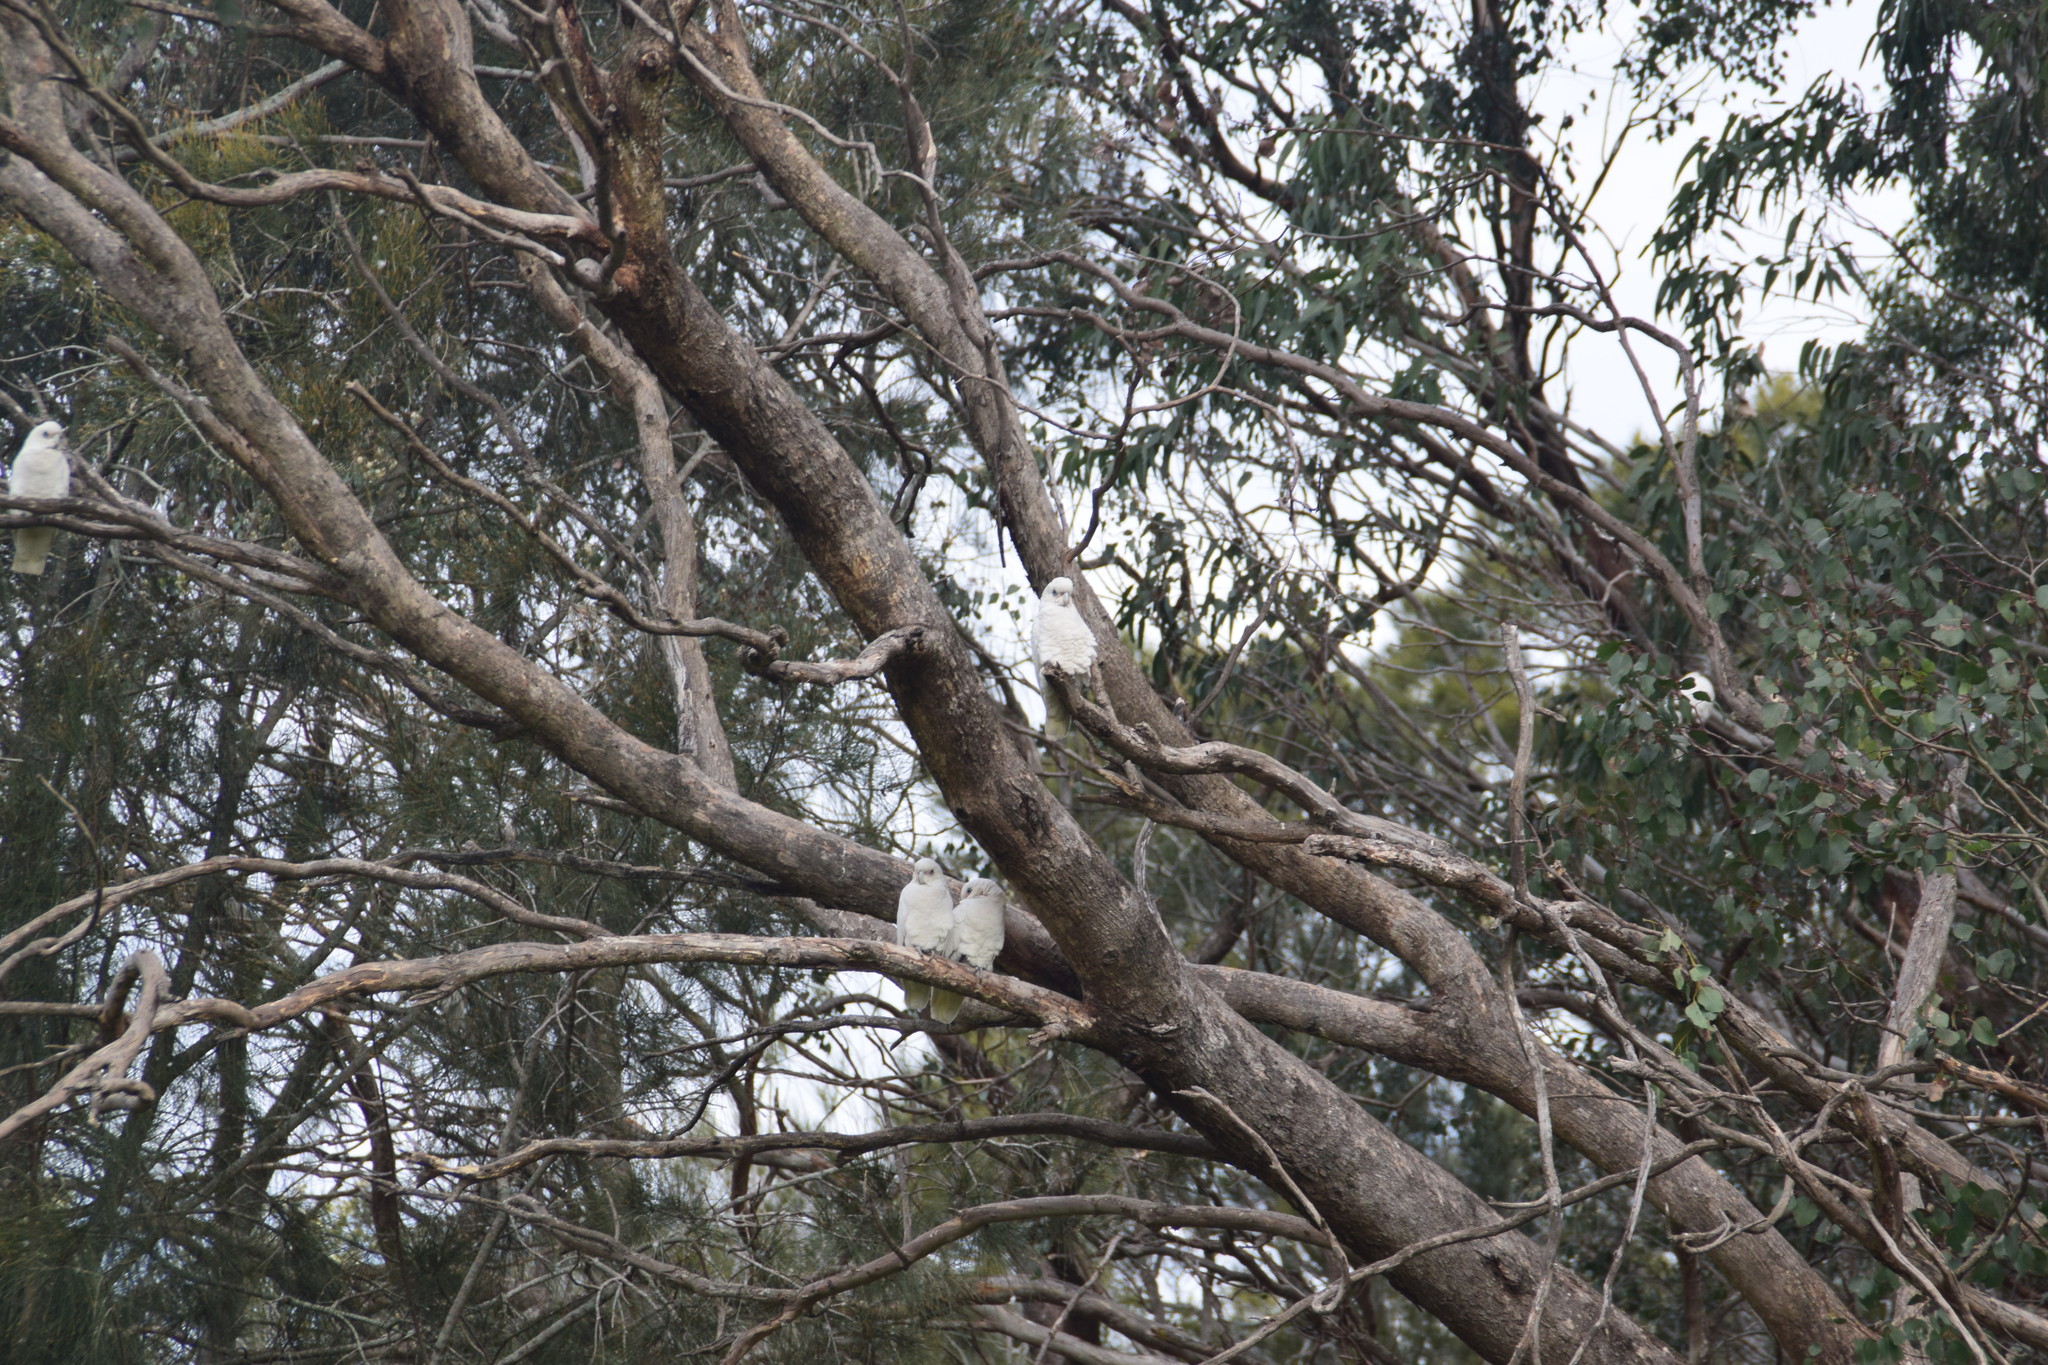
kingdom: Animalia
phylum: Chordata
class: Aves
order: Psittaciformes
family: Psittacidae
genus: Cacatua
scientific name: Cacatua sanguinea
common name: Little corella
